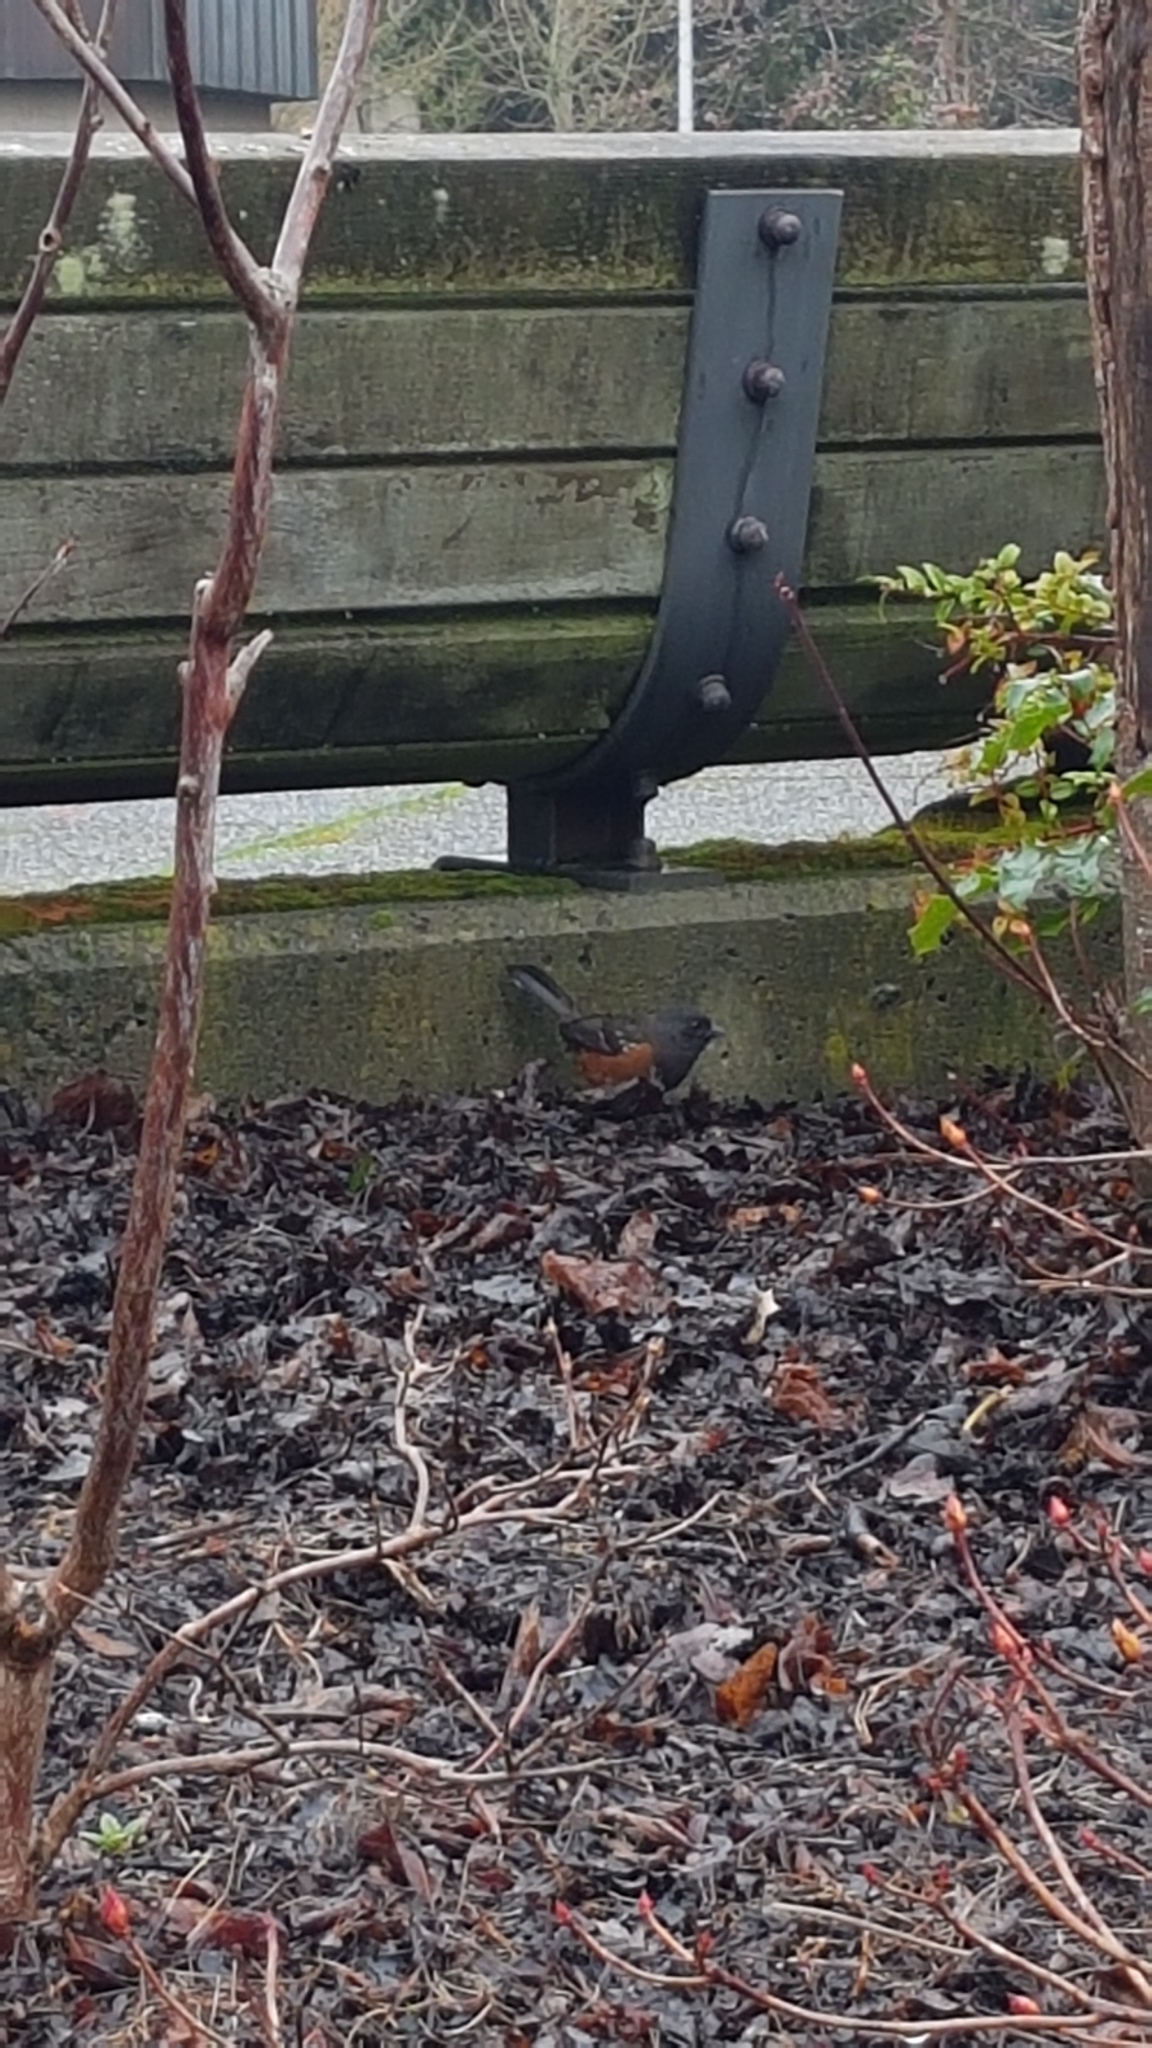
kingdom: Animalia
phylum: Chordata
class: Aves
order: Passeriformes
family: Passerellidae
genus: Pipilo
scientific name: Pipilo maculatus
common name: Spotted towhee
